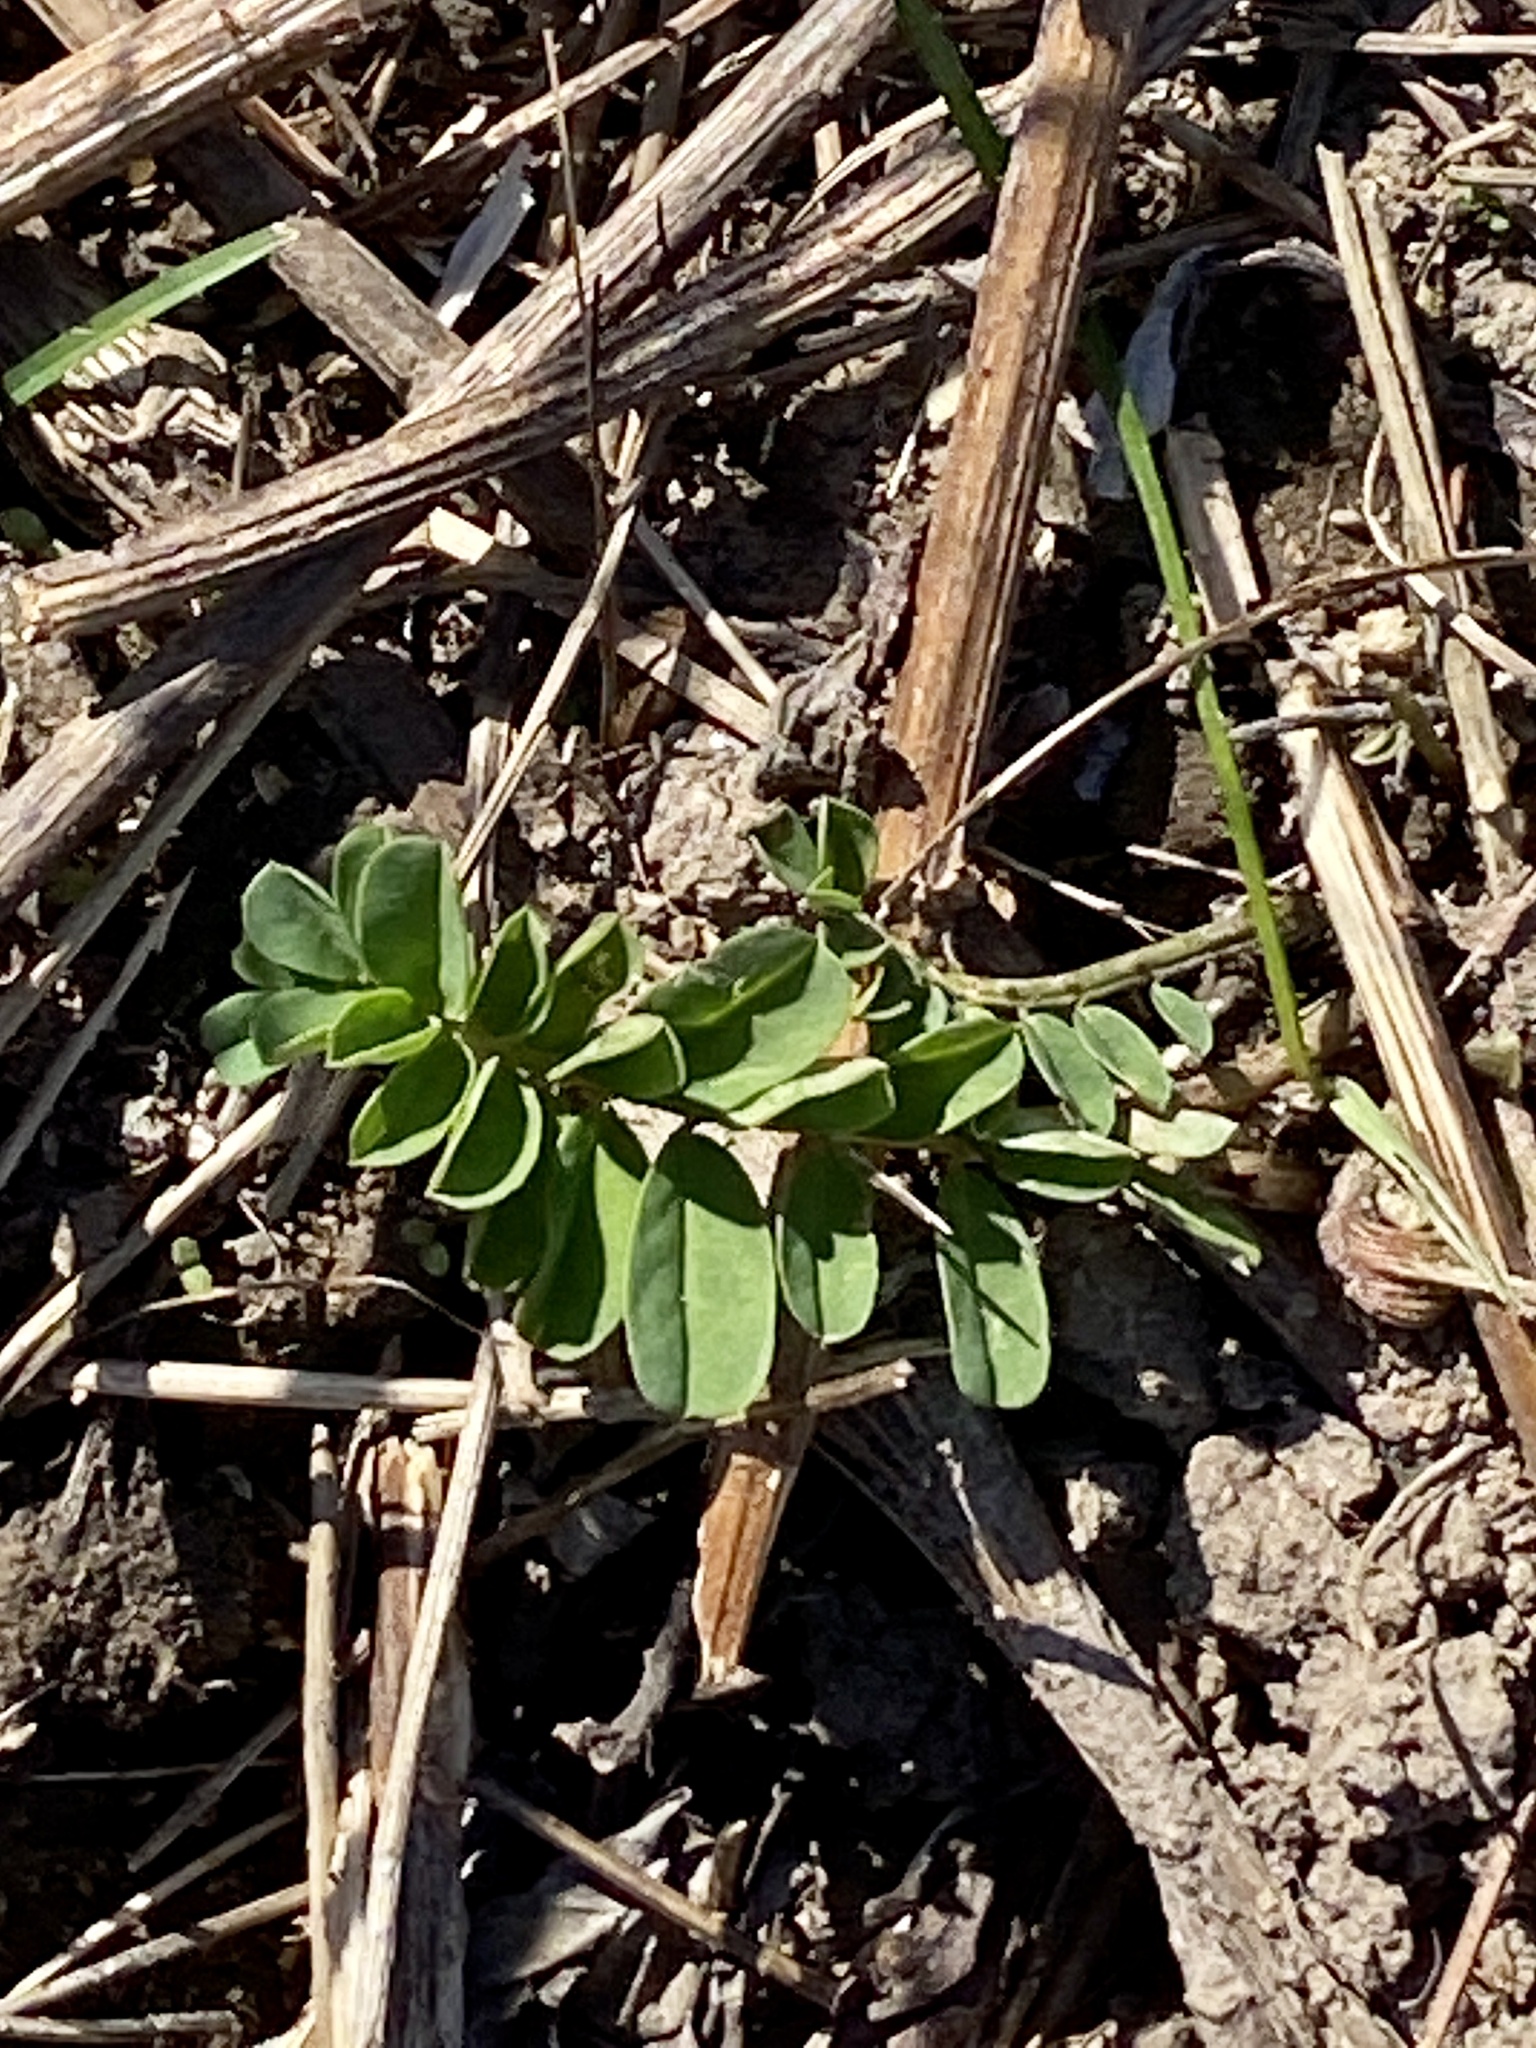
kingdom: Plantae
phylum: Tracheophyta
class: Magnoliopsida
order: Fabales
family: Fabaceae
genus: Coronilla
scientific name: Coronilla varia
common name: Crownvetch
